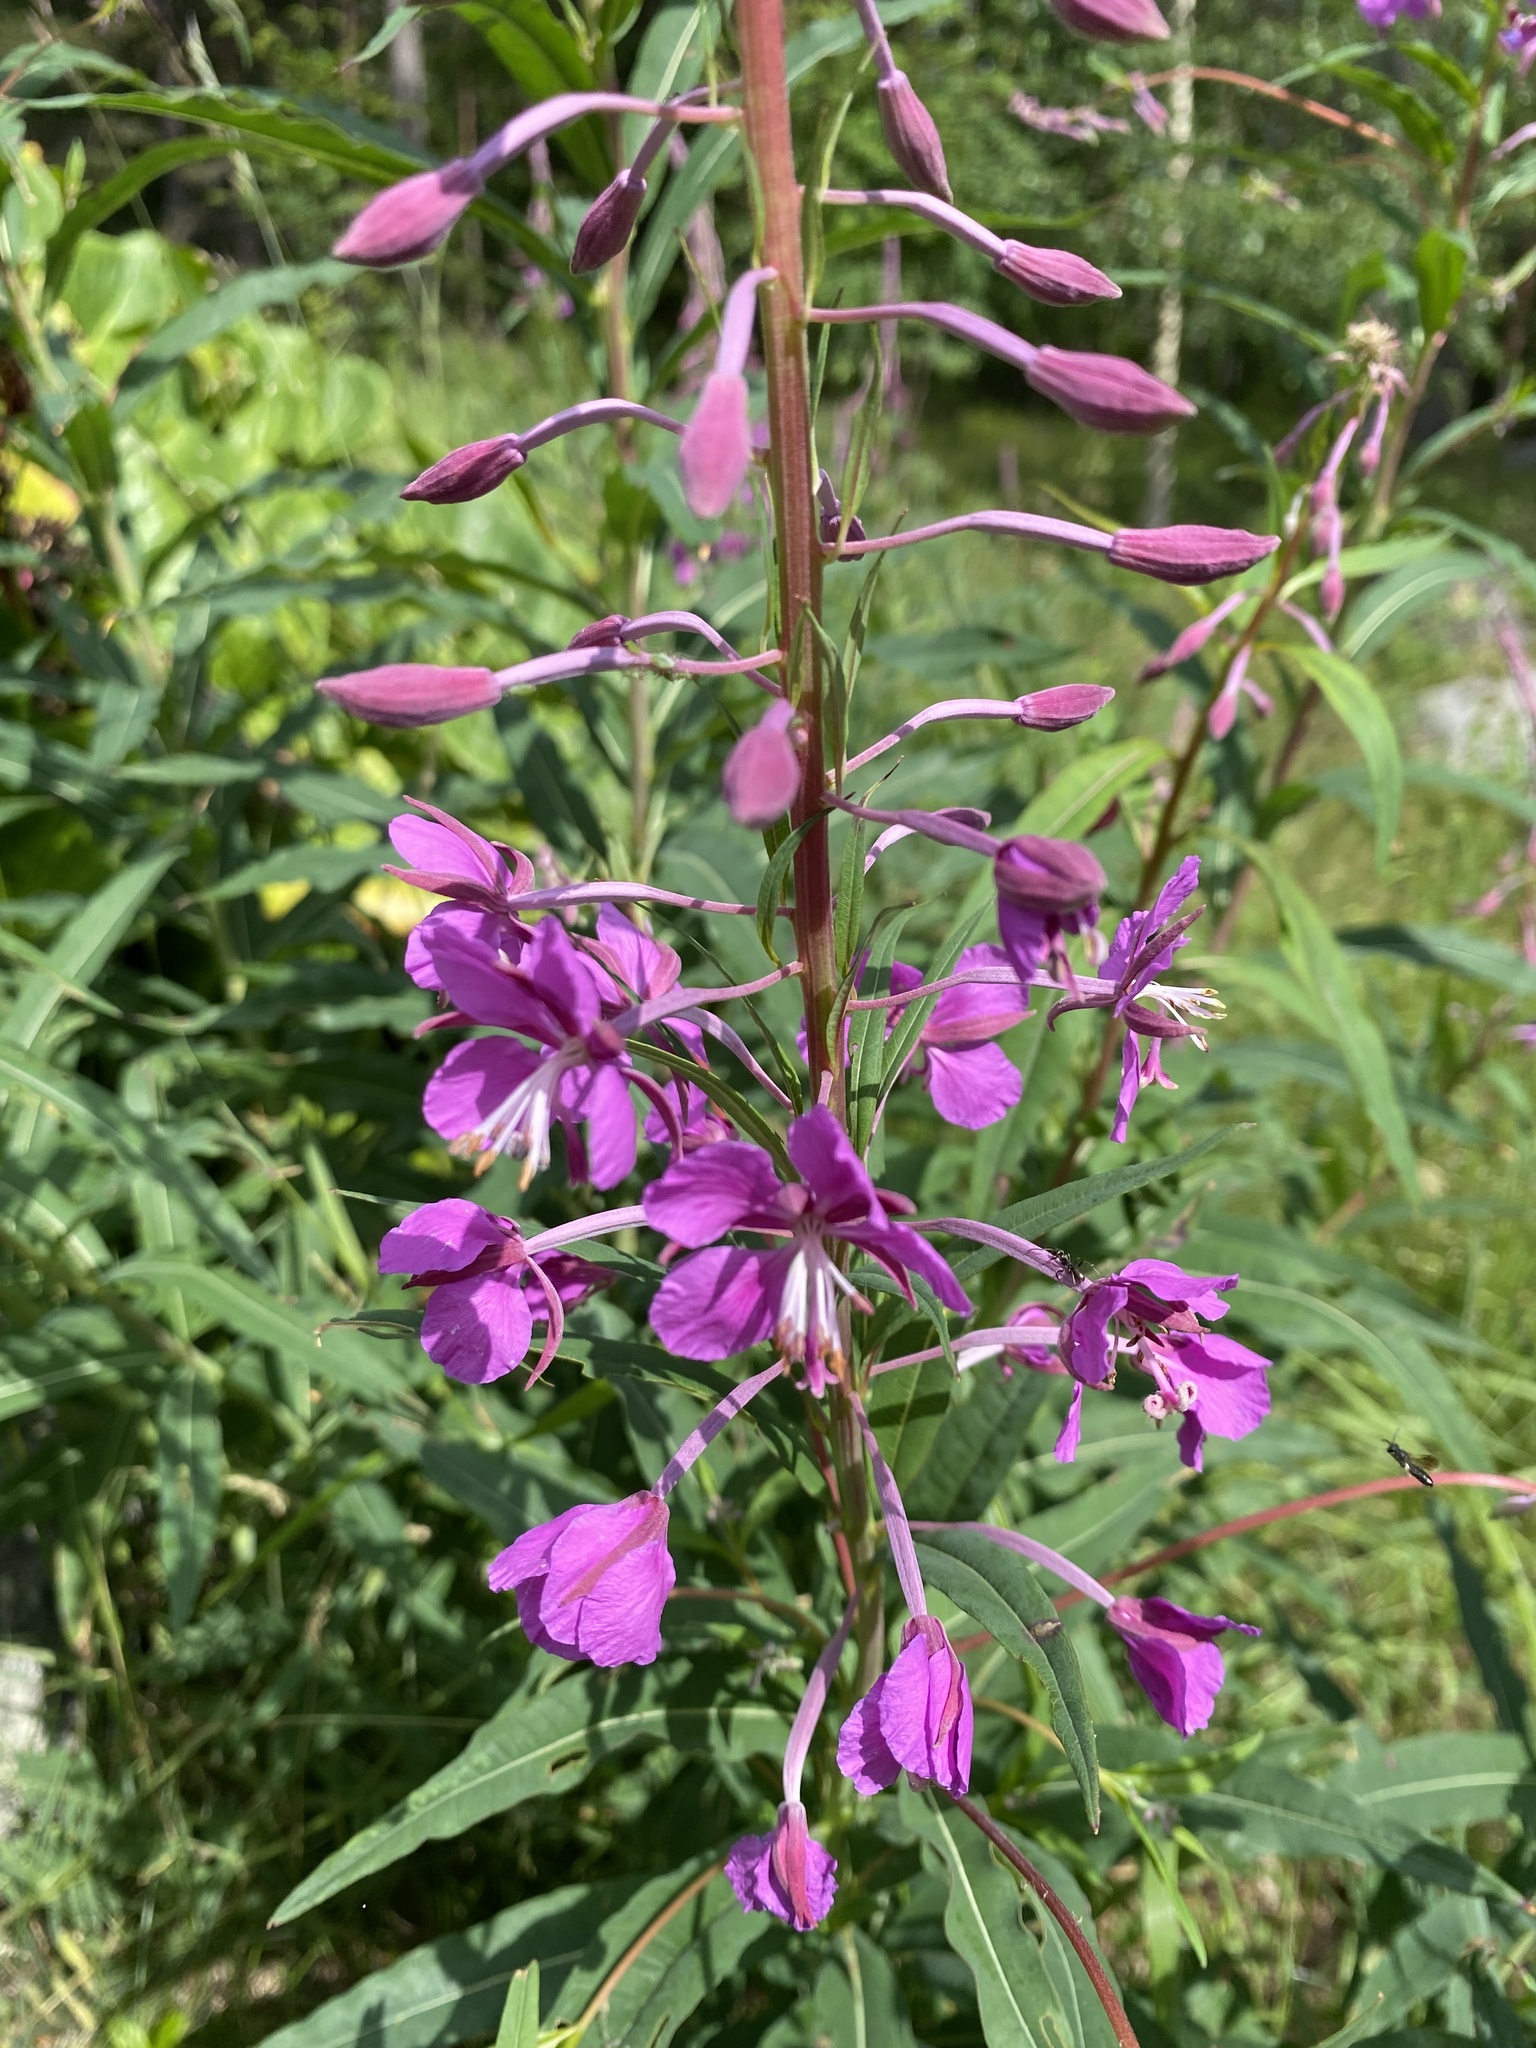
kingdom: Plantae
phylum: Tracheophyta
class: Magnoliopsida
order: Myrtales
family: Onagraceae
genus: Chamaenerion
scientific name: Chamaenerion angustifolium
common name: Fireweed
